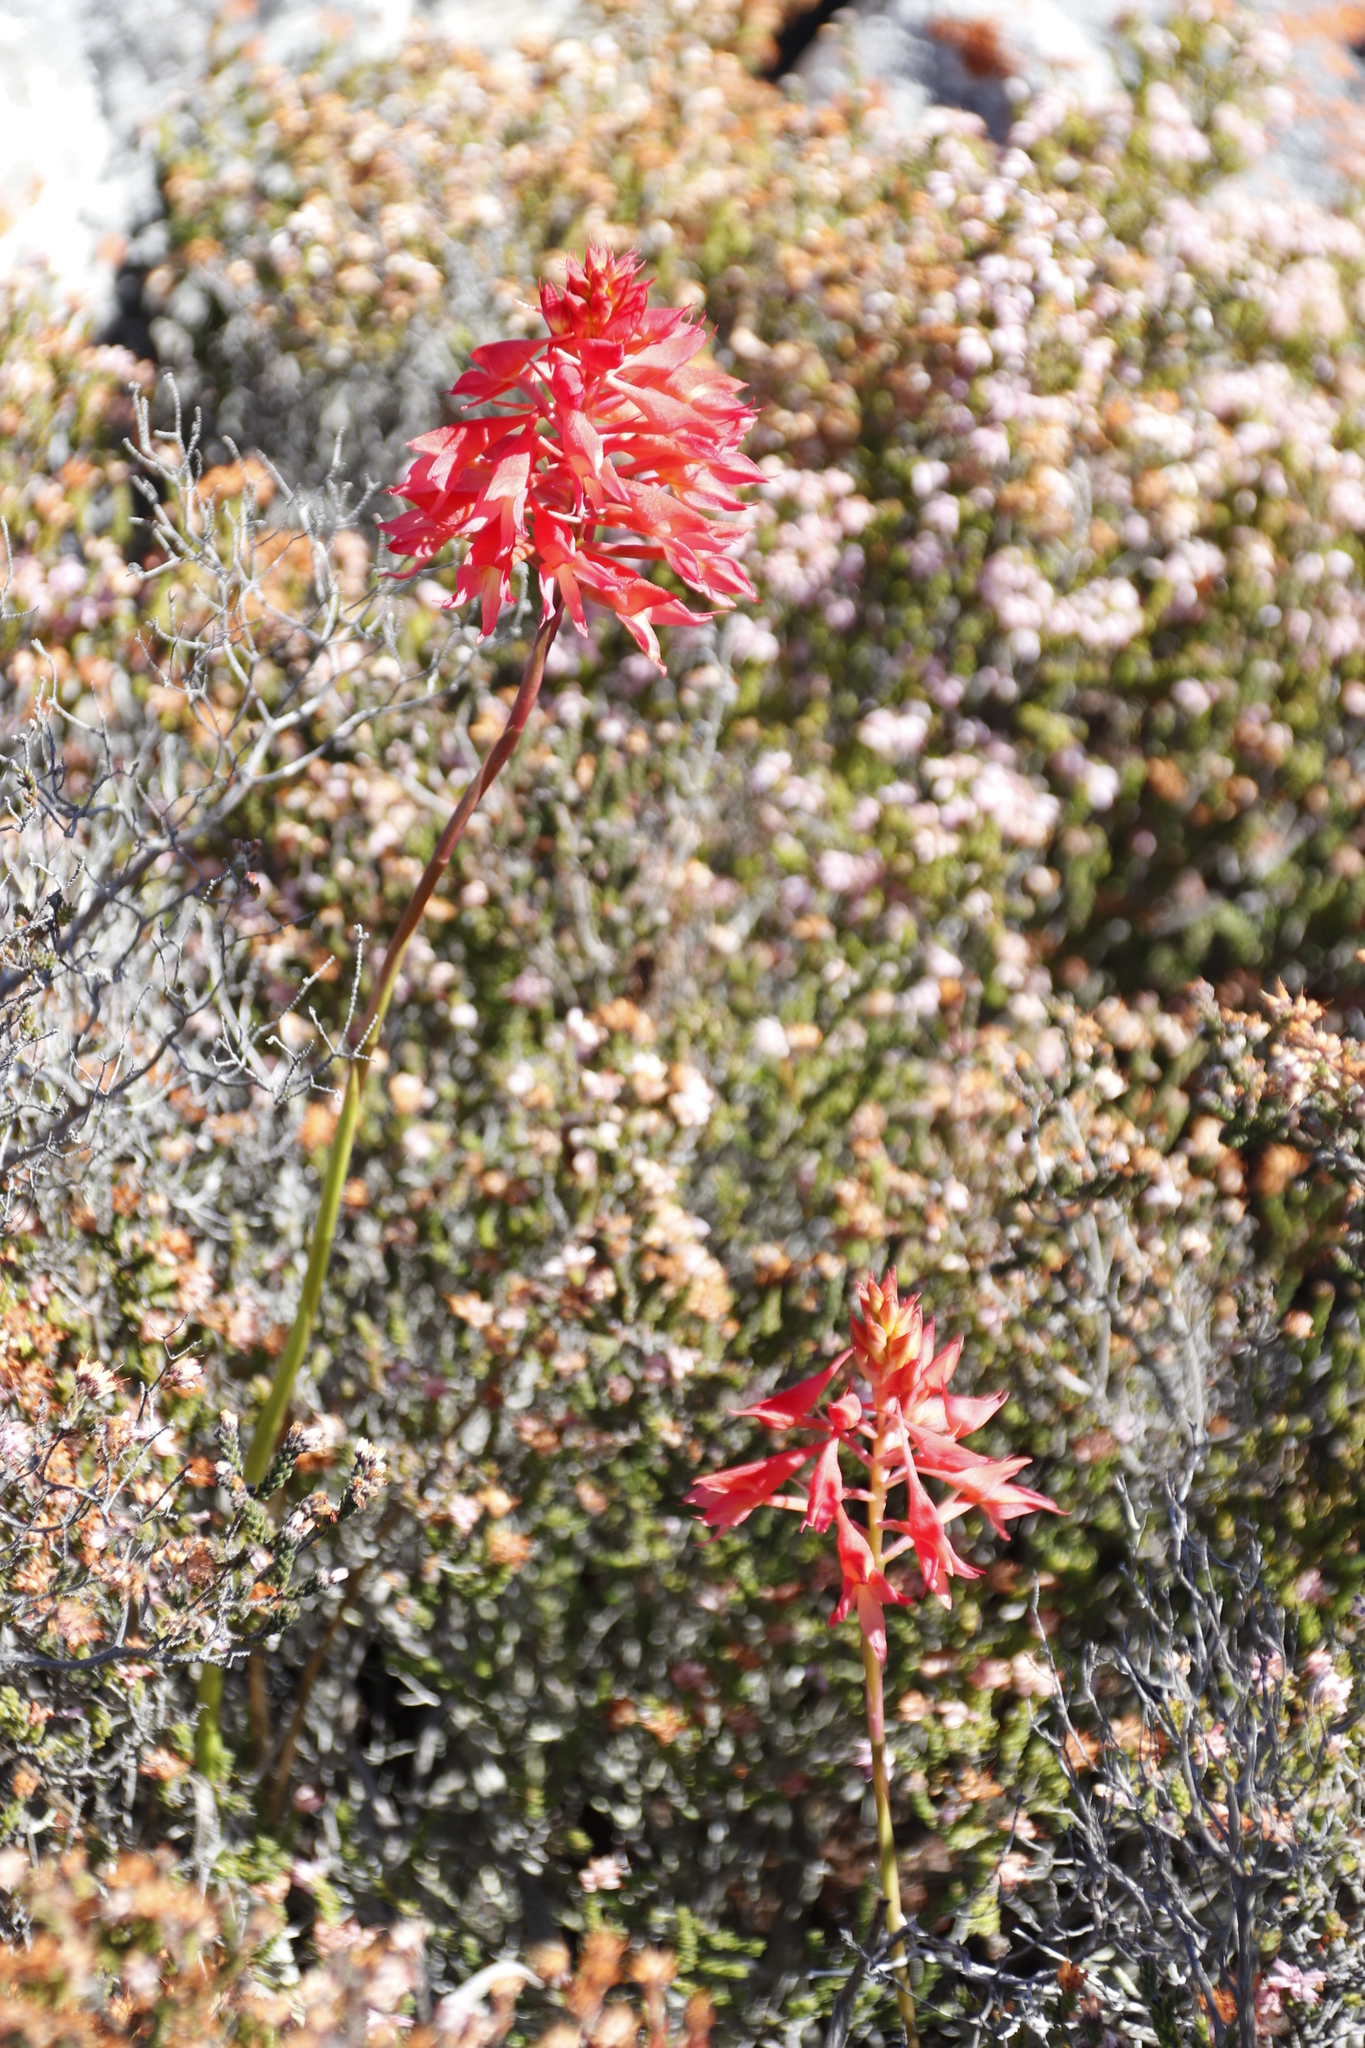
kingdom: Plantae
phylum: Tracheophyta
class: Liliopsida
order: Asparagales
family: Orchidaceae
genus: Disa
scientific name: Disa ferruginea
